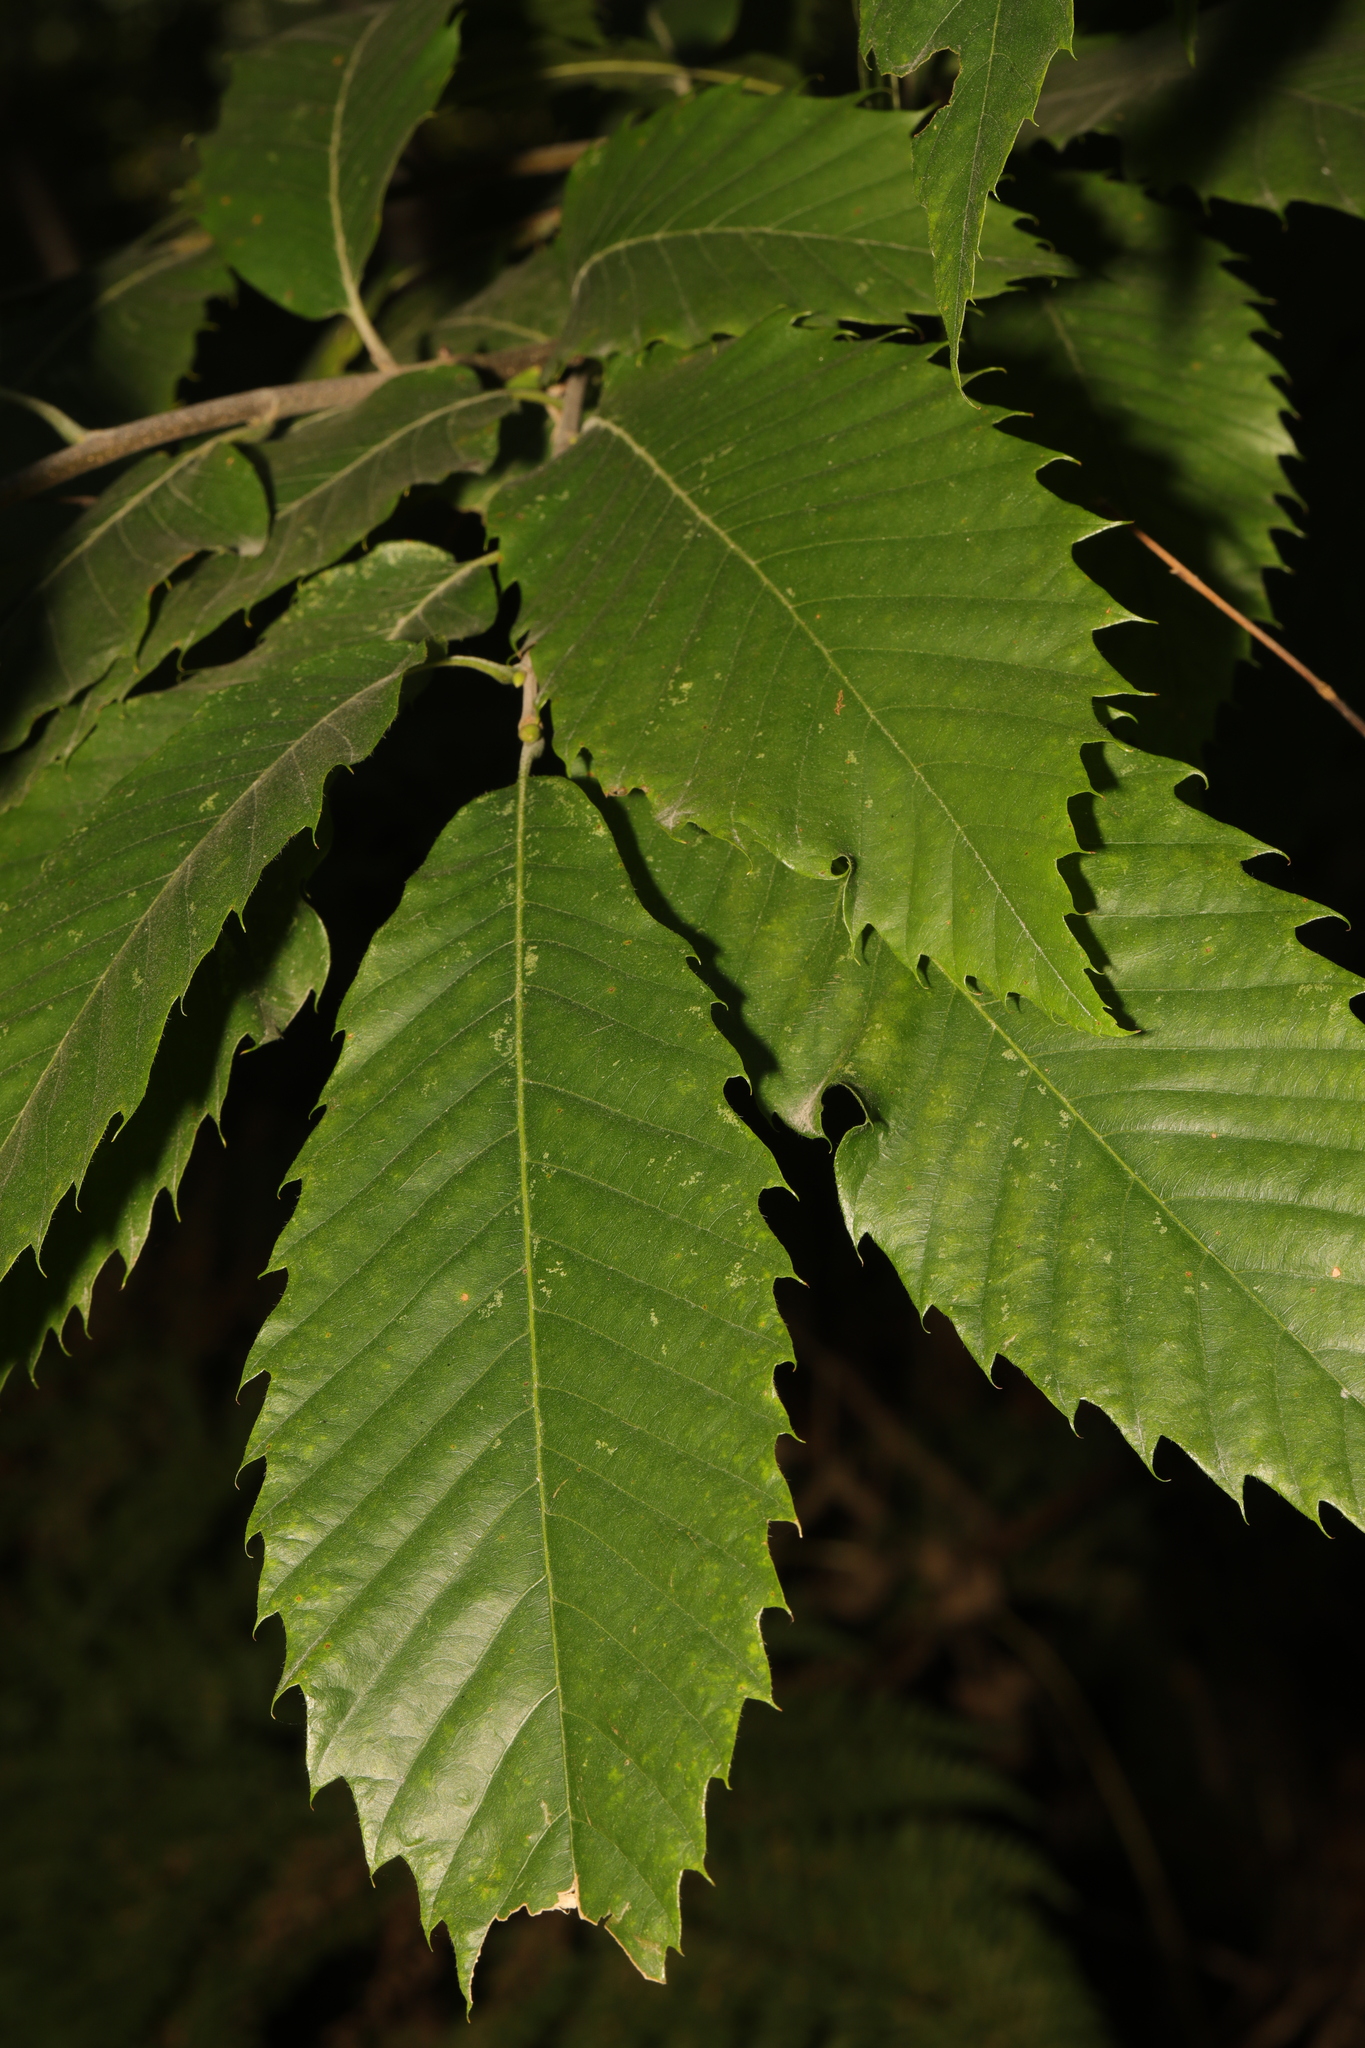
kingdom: Plantae
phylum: Tracheophyta
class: Magnoliopsida
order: Fagales
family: Fagaceae
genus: Castanea
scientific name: Castanea sativa
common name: Sweet chestnut
